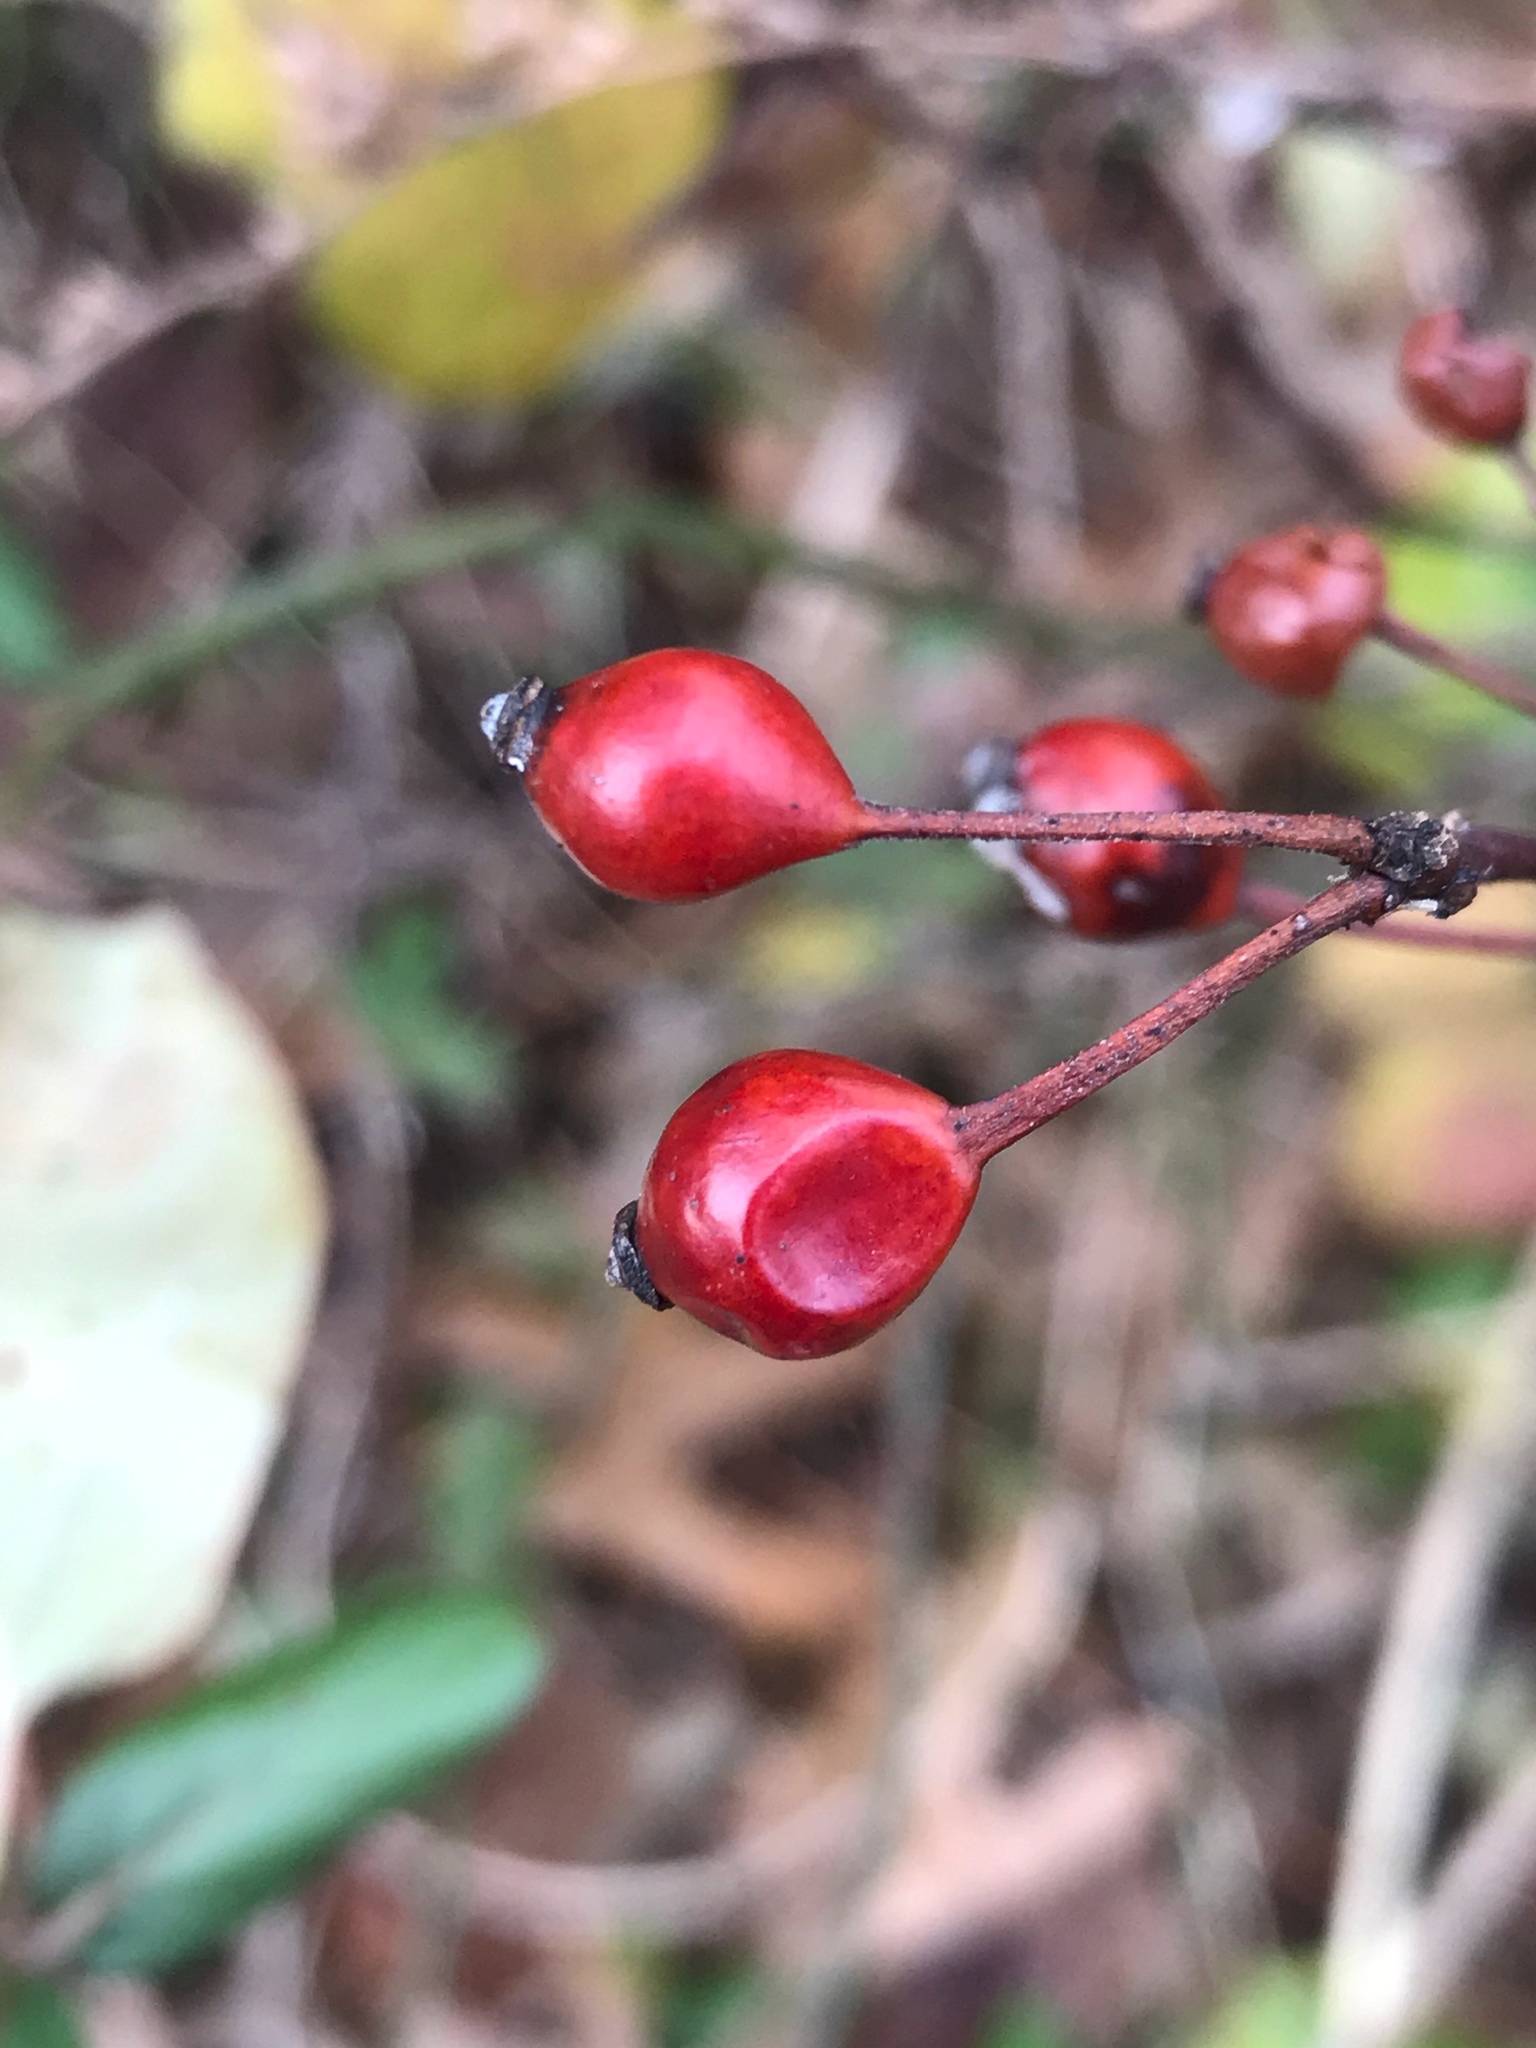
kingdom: Plantae
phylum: Tracheophyta
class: Magnoliopsida
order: Rosales
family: Rosaceae
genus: Rosa
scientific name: Rosa multiflora
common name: Multiflora rose
